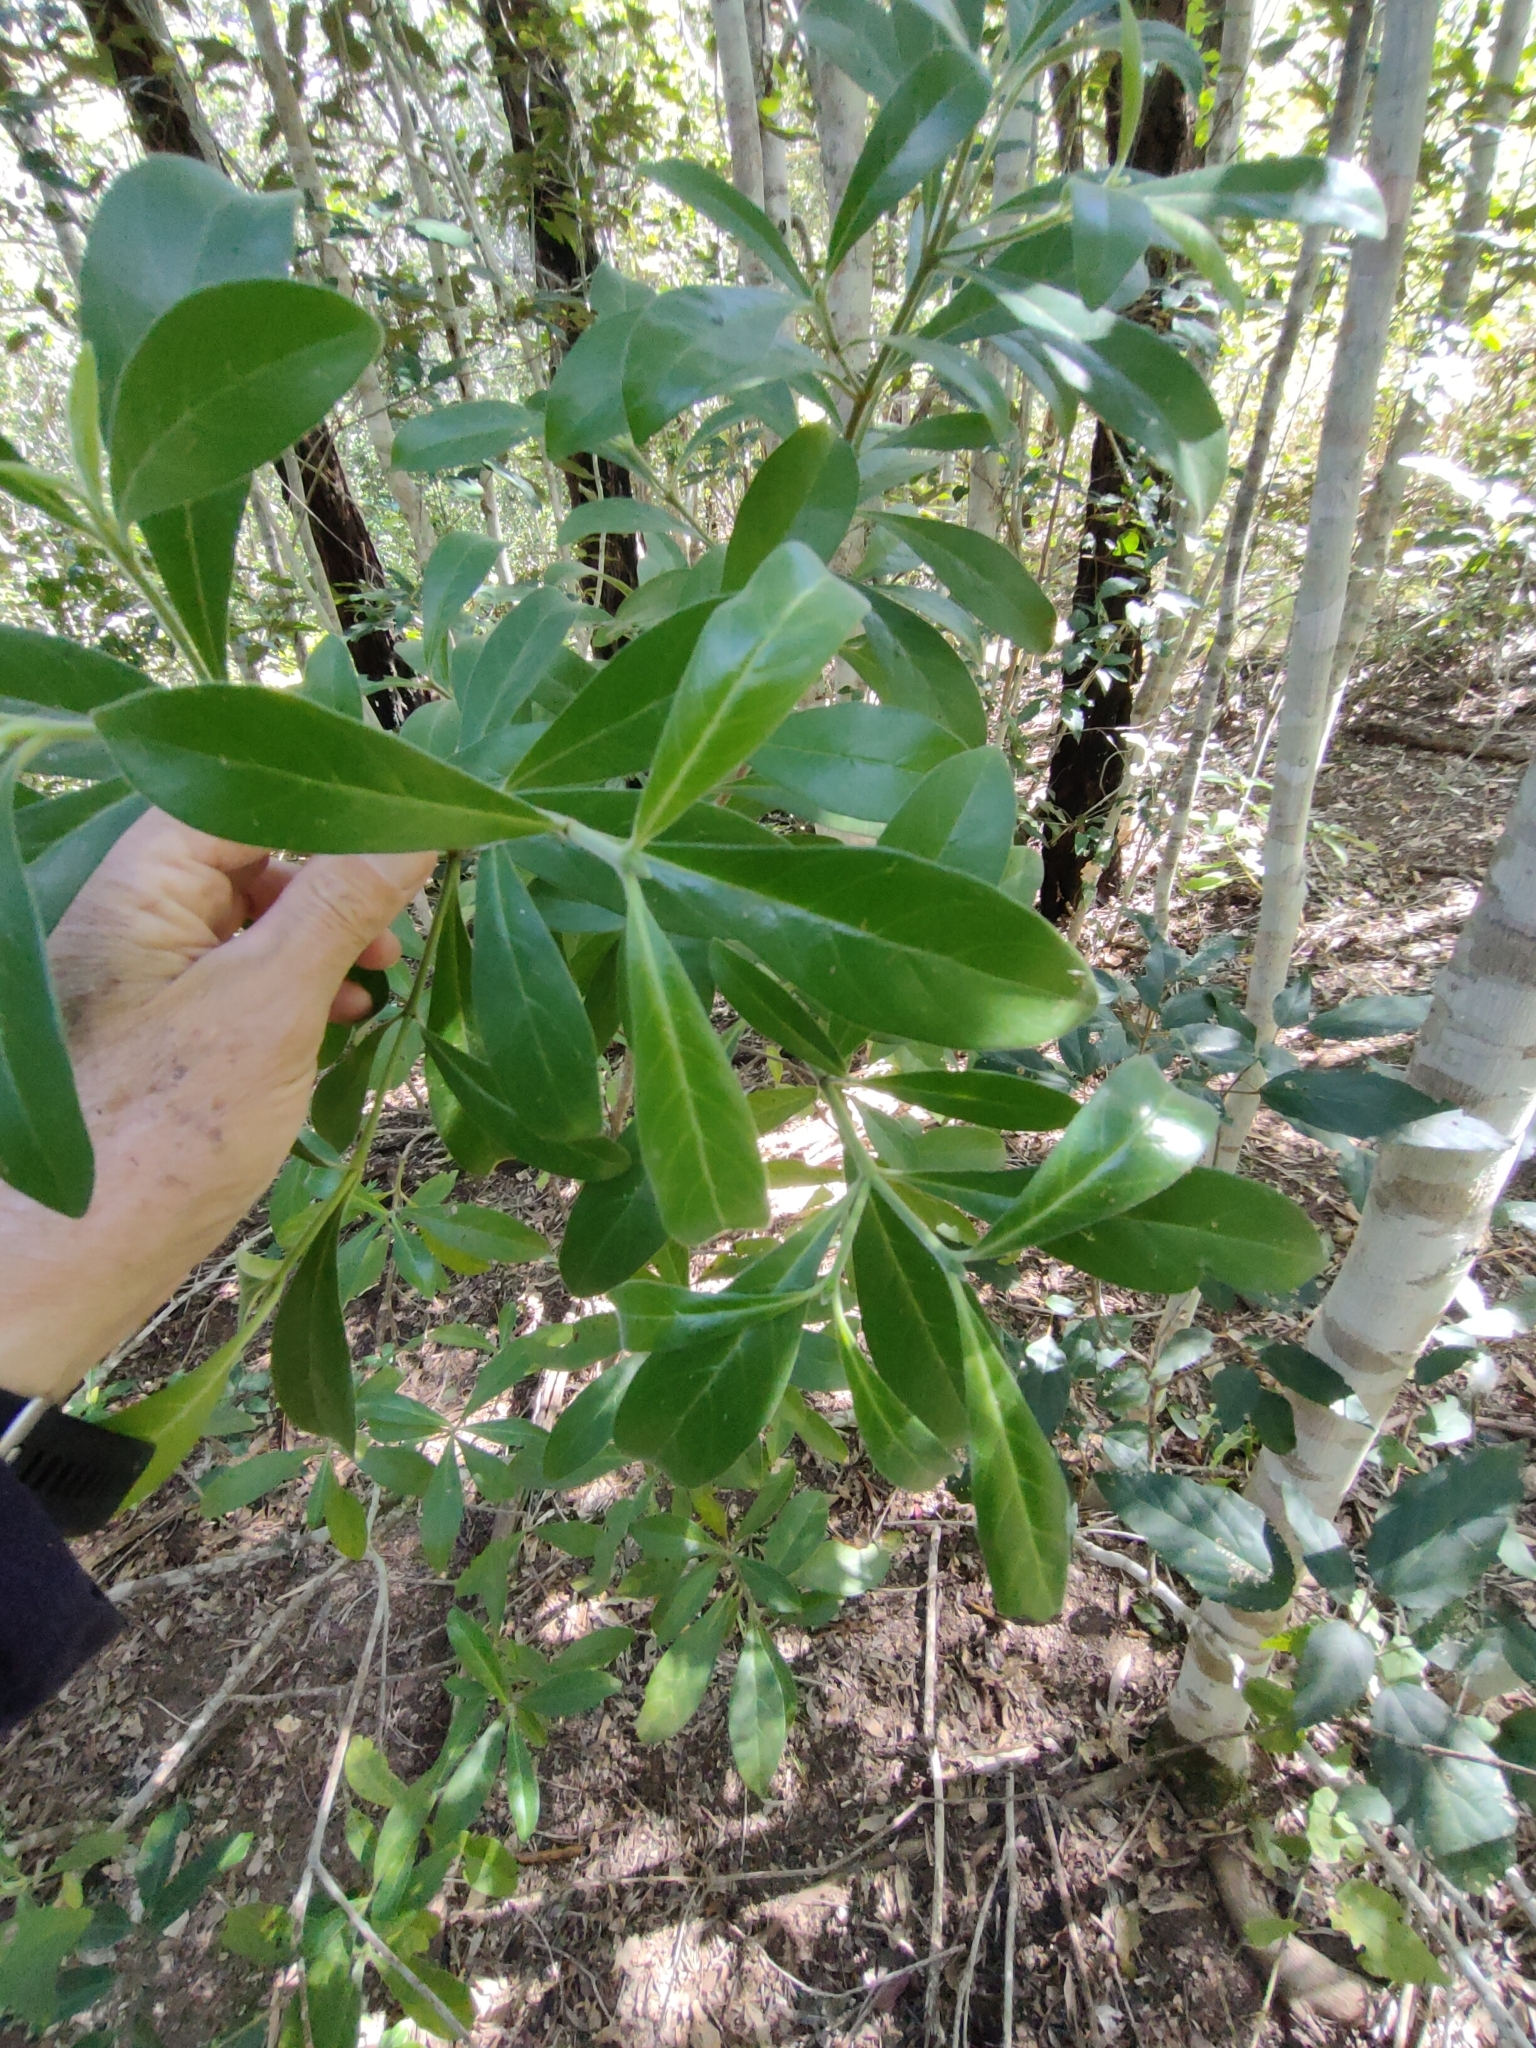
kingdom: Plantae
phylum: Tracheophyta
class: Magnoliopsida
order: Gentianales
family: Rubiaceae
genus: Psychotria
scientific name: Psychotria daphnoides
